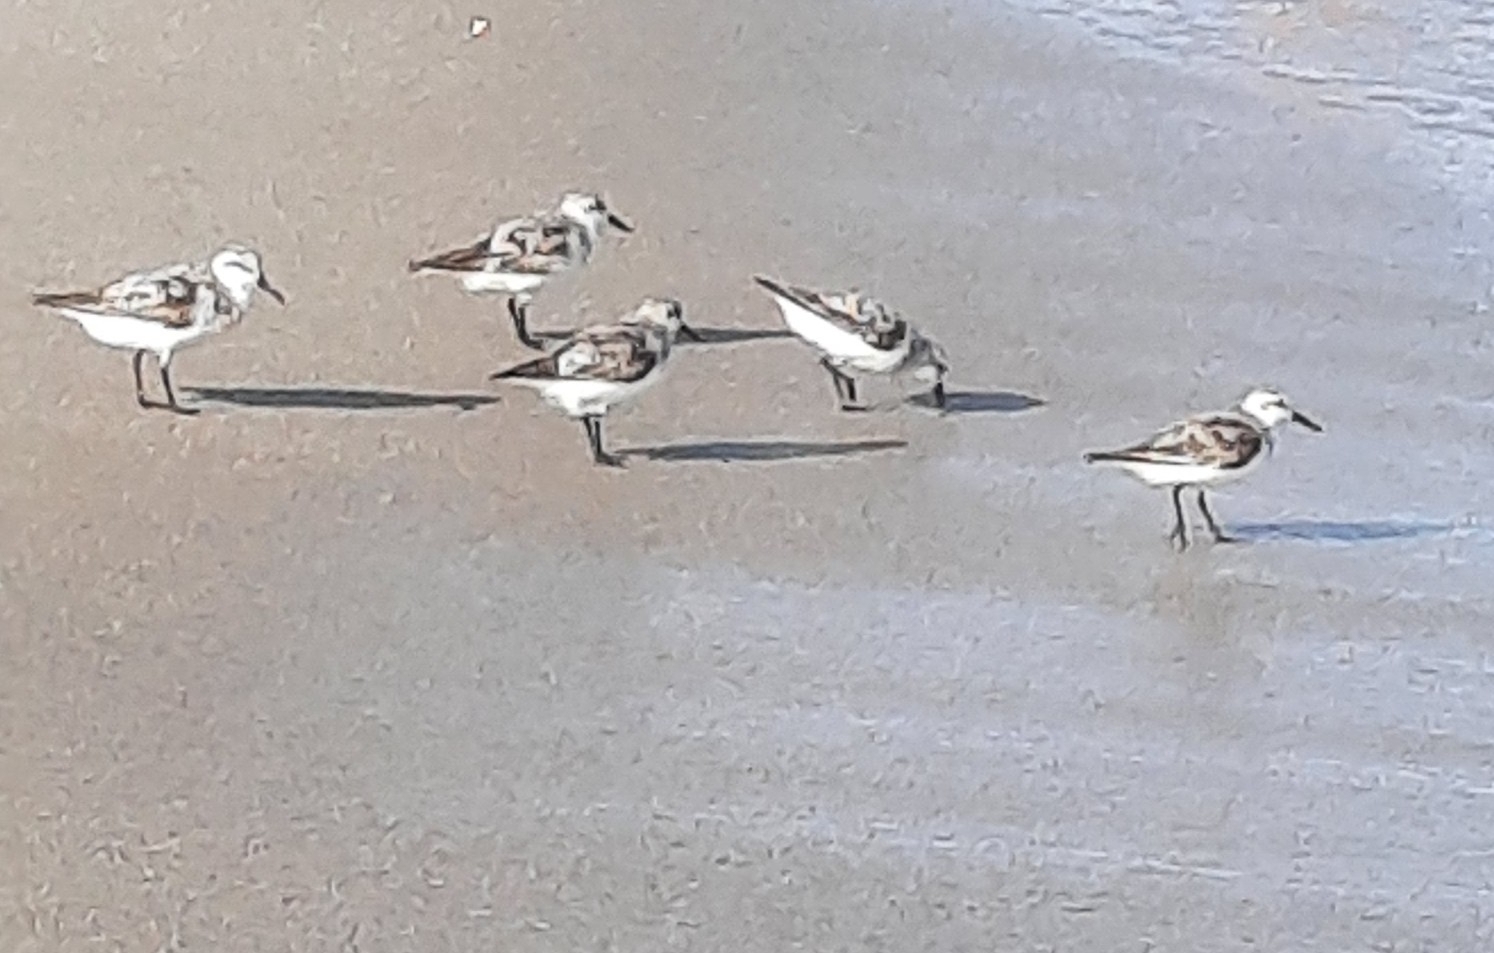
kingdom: Animalia
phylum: Chordata
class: Aves
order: Charadriiformes
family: Scolopacidae
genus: Calidris
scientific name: Calidris alba
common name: Sanderling
